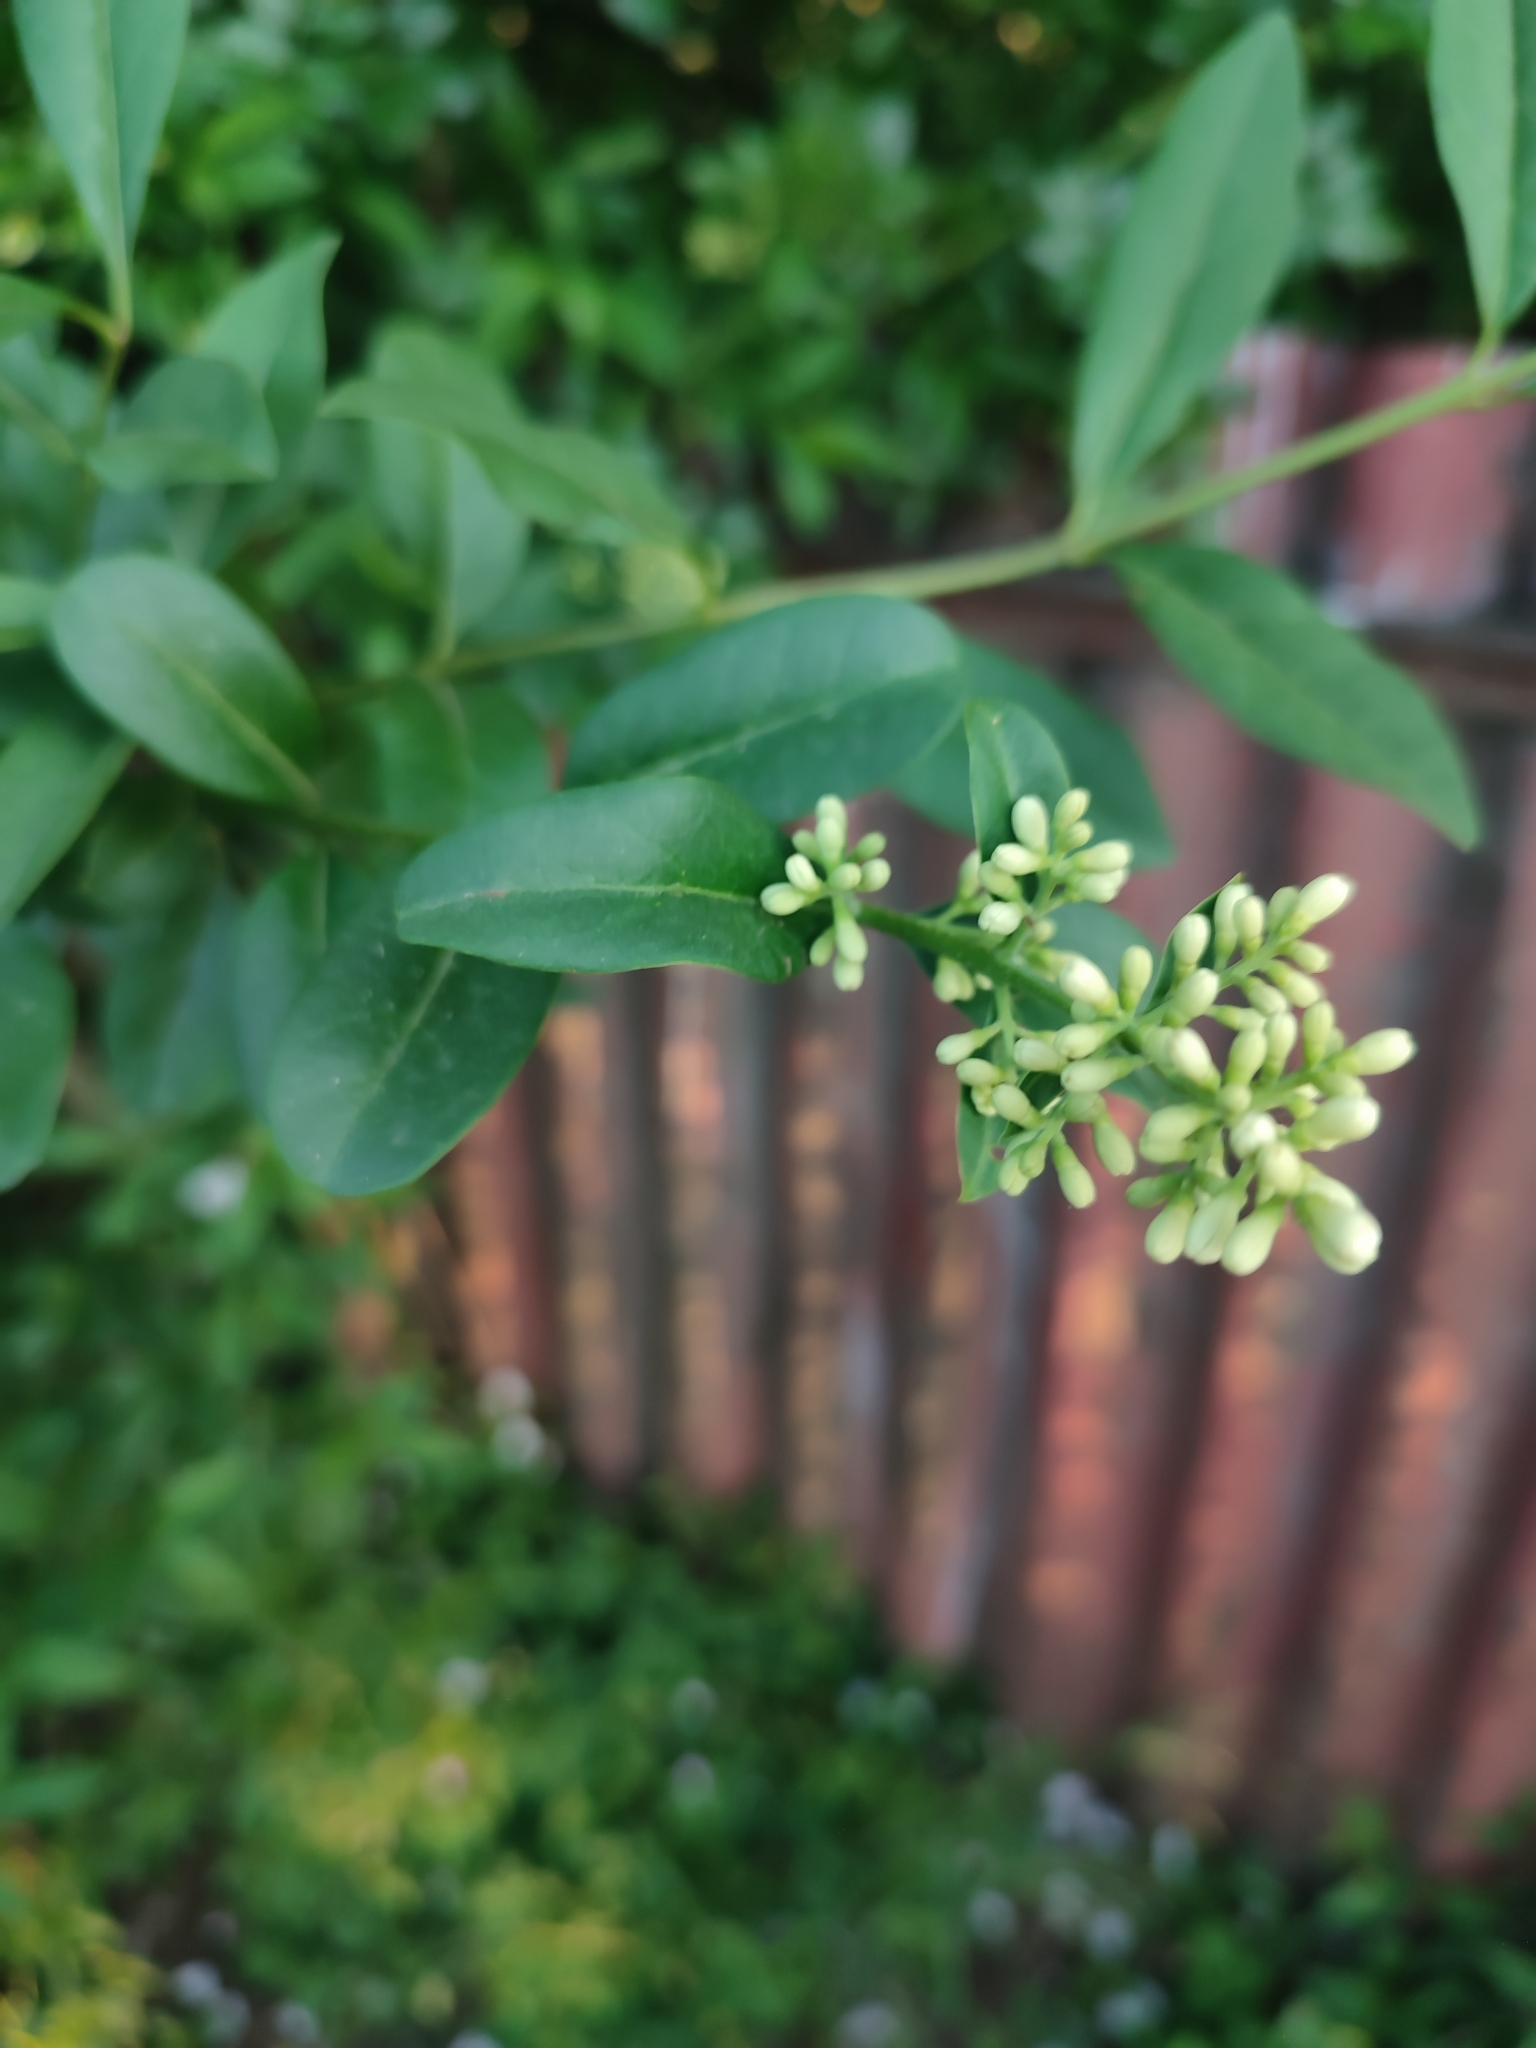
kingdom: Plantae
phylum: Tracheophyta
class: Magnoliopsida
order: Lamiales
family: Oleaceae
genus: Ligustrum
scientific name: Ligustrum vulgare
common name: Wild privet
